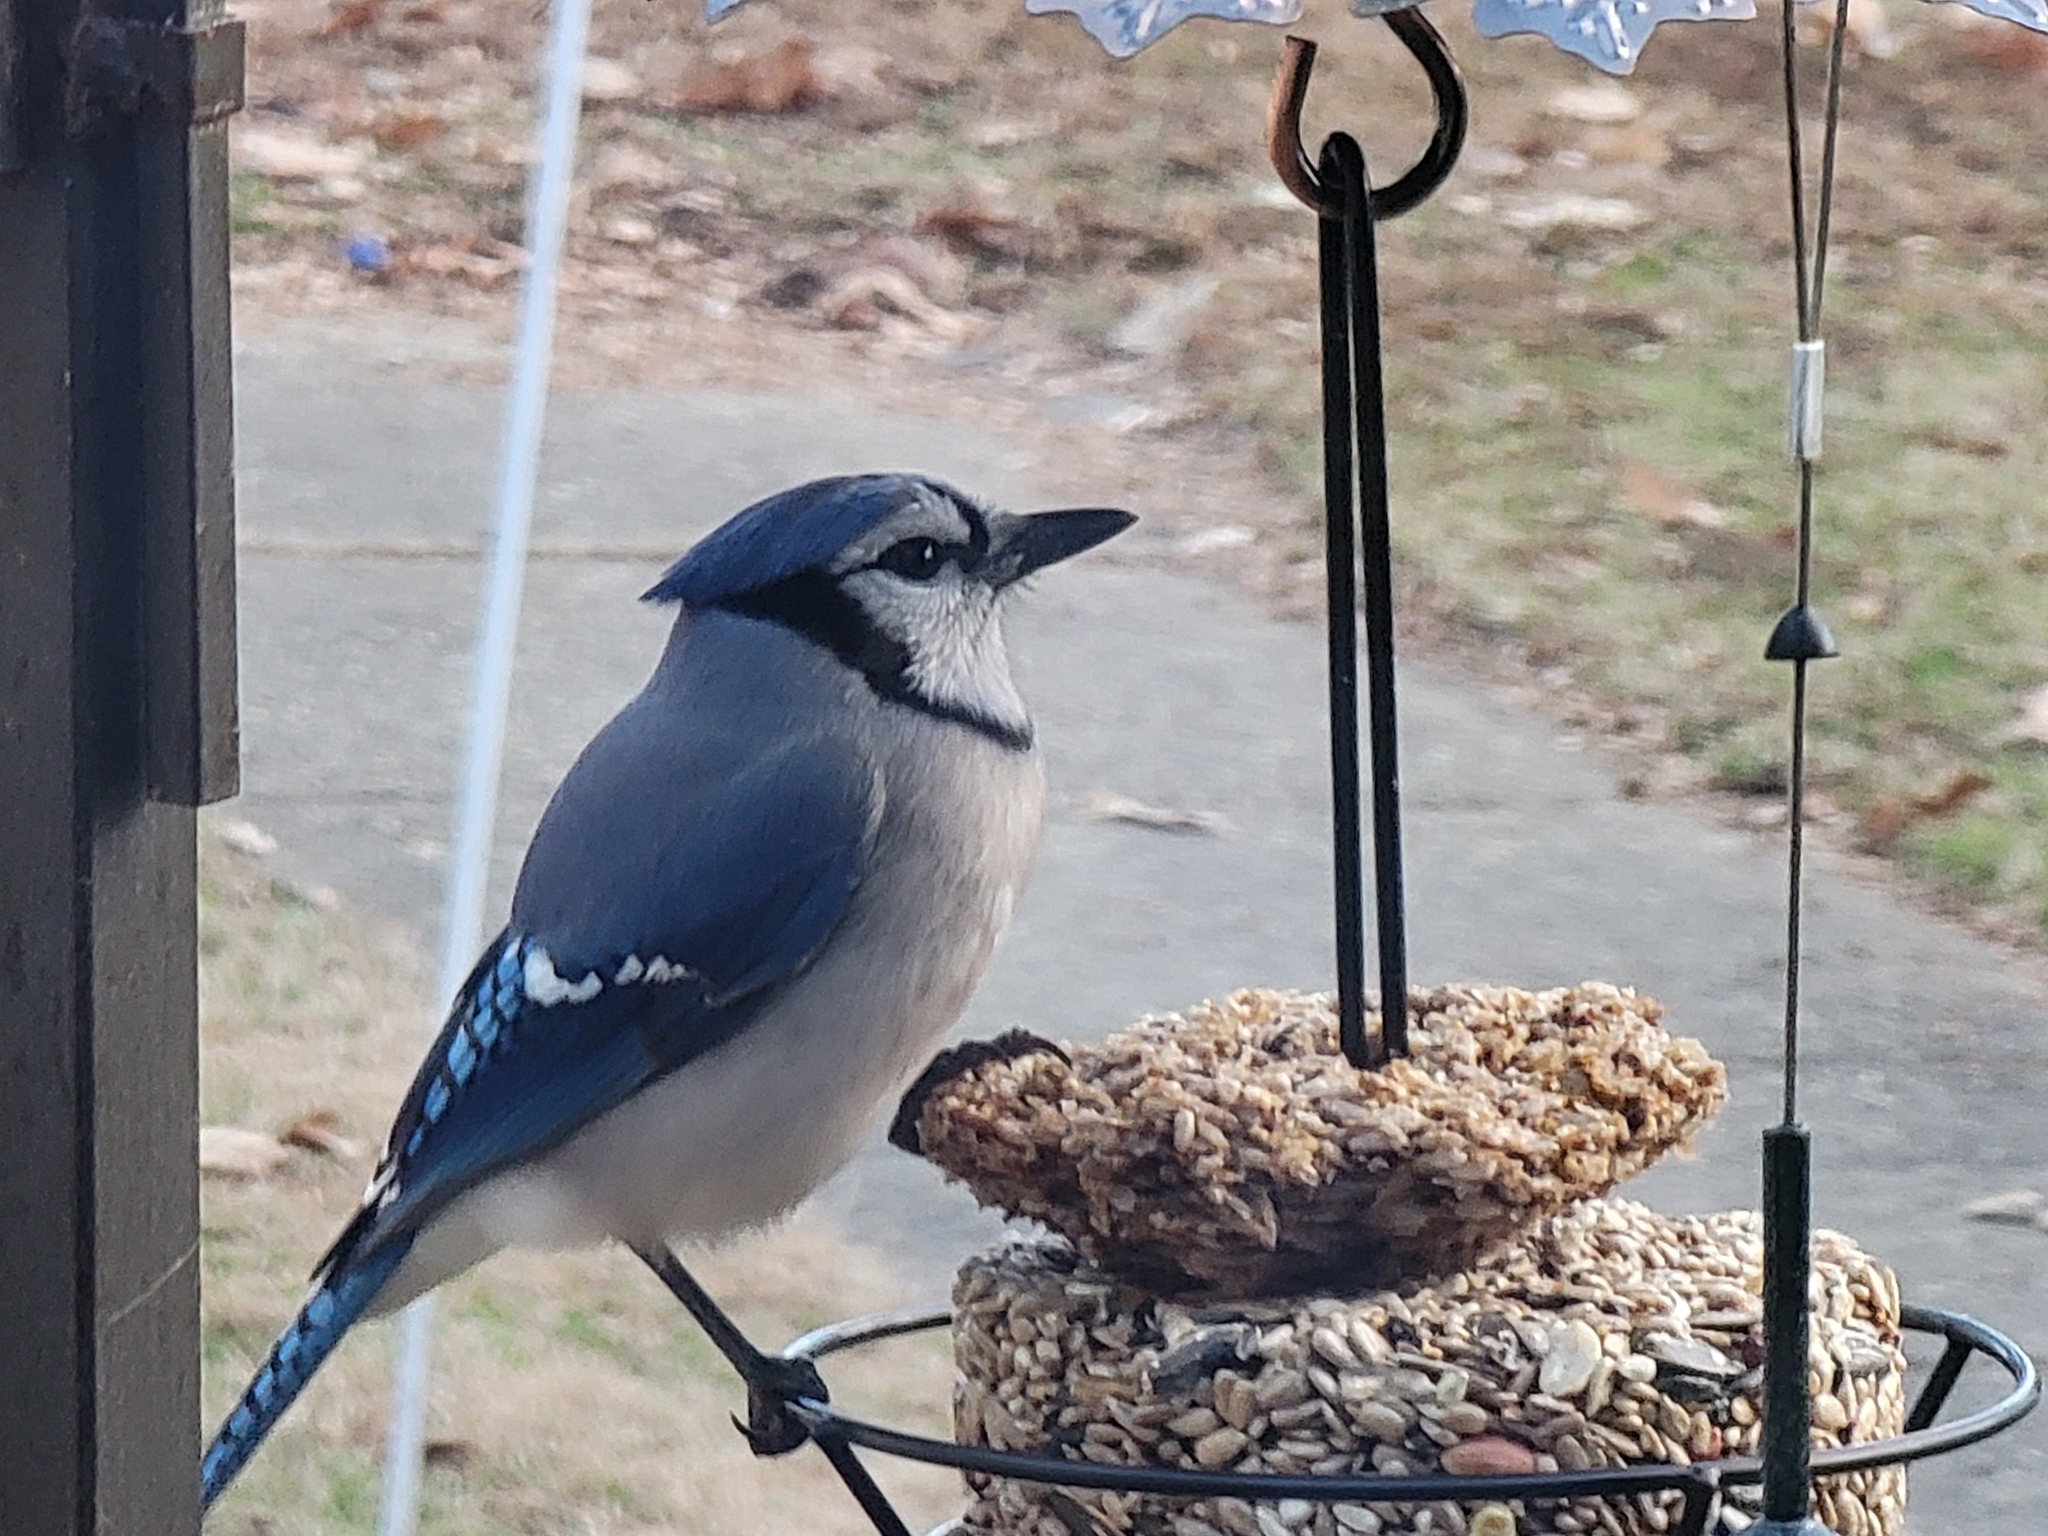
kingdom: Animalia
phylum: Chordata
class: Aves
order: Passeriformes
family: Corvidae
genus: Cyanocitta
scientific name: Cyanocitta cristata
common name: Blue jay
